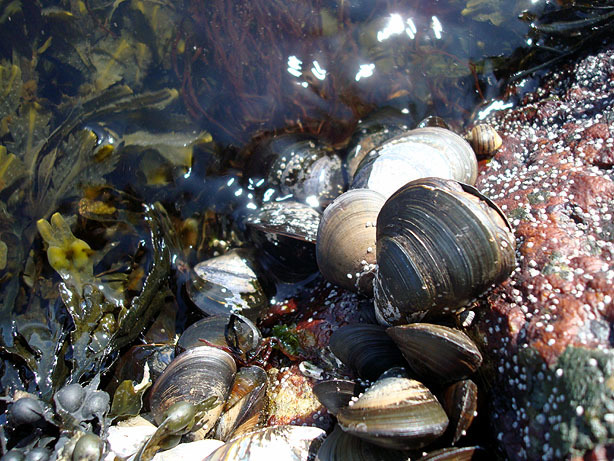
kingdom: Animalia
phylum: Mollusca
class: Bivalvia
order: Mytilida
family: Mytilidae
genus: Mytilus
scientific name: Mytilus edulis
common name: Blue mussel
